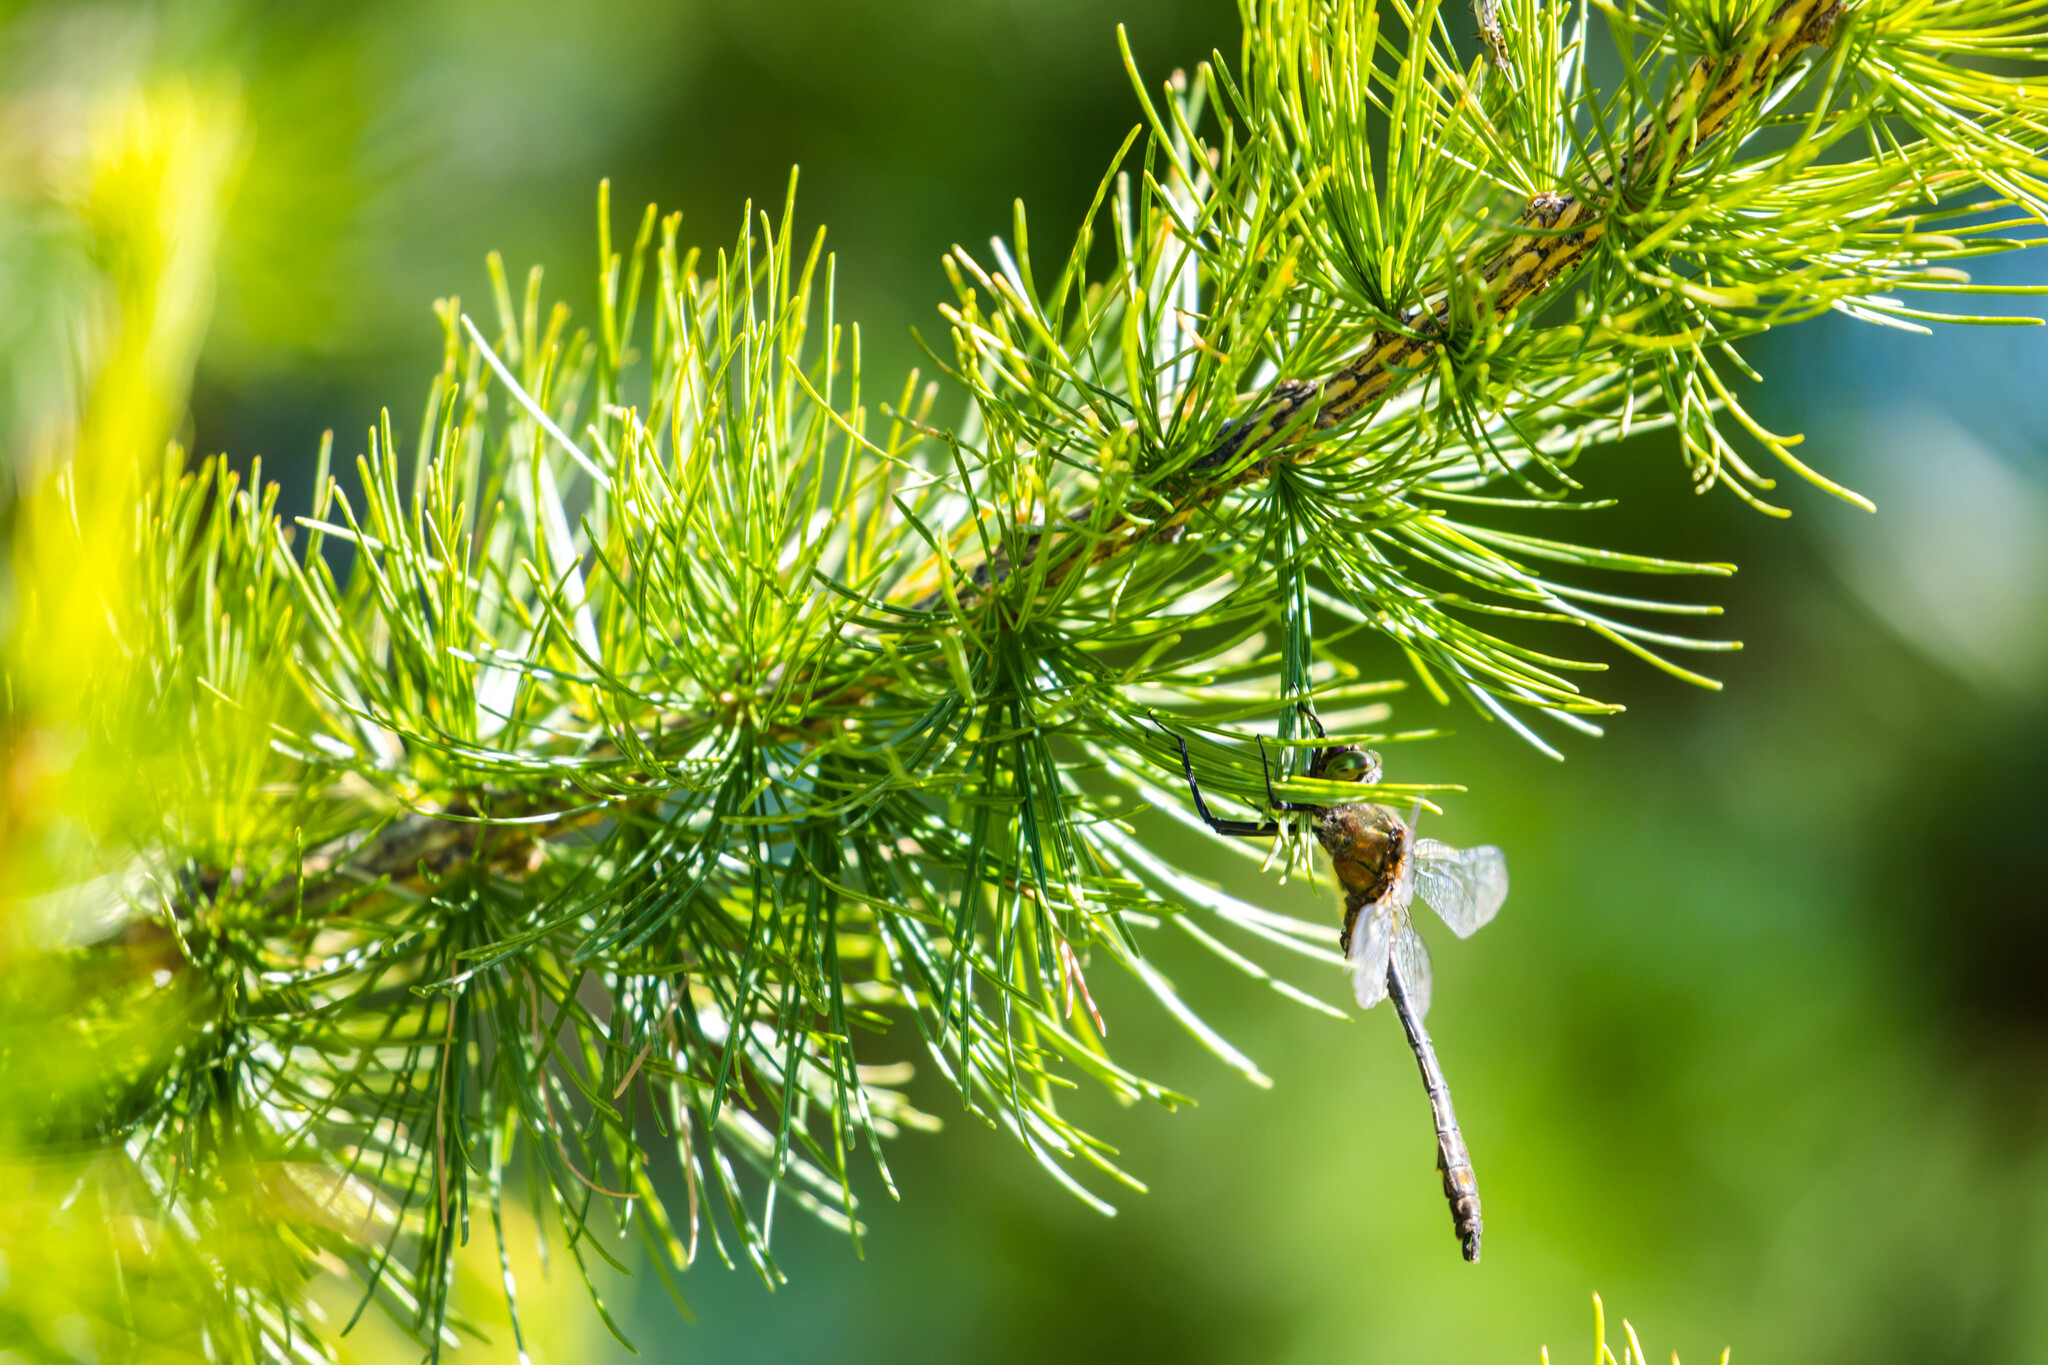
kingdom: Animalia
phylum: Arthropoda
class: Insecta
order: Odonata
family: Corduliidae
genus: Cordulia
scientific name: Cordulia aenea
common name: Downy emerald
